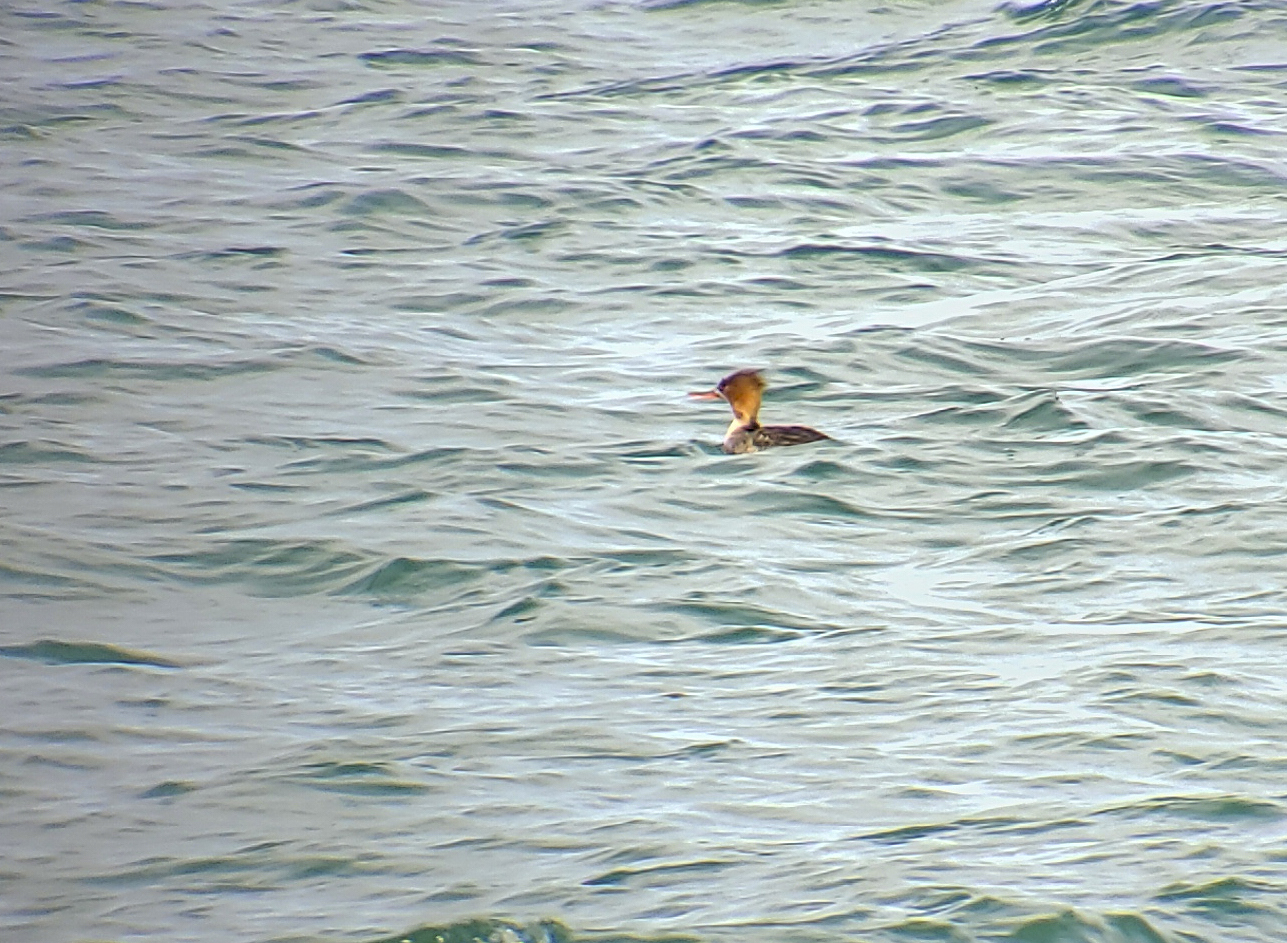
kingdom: Animalia
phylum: Chordata
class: Aves
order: Anseriformes
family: Anatidae
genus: Mergus
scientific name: Mergus serrator
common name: Red-breasted merganser
